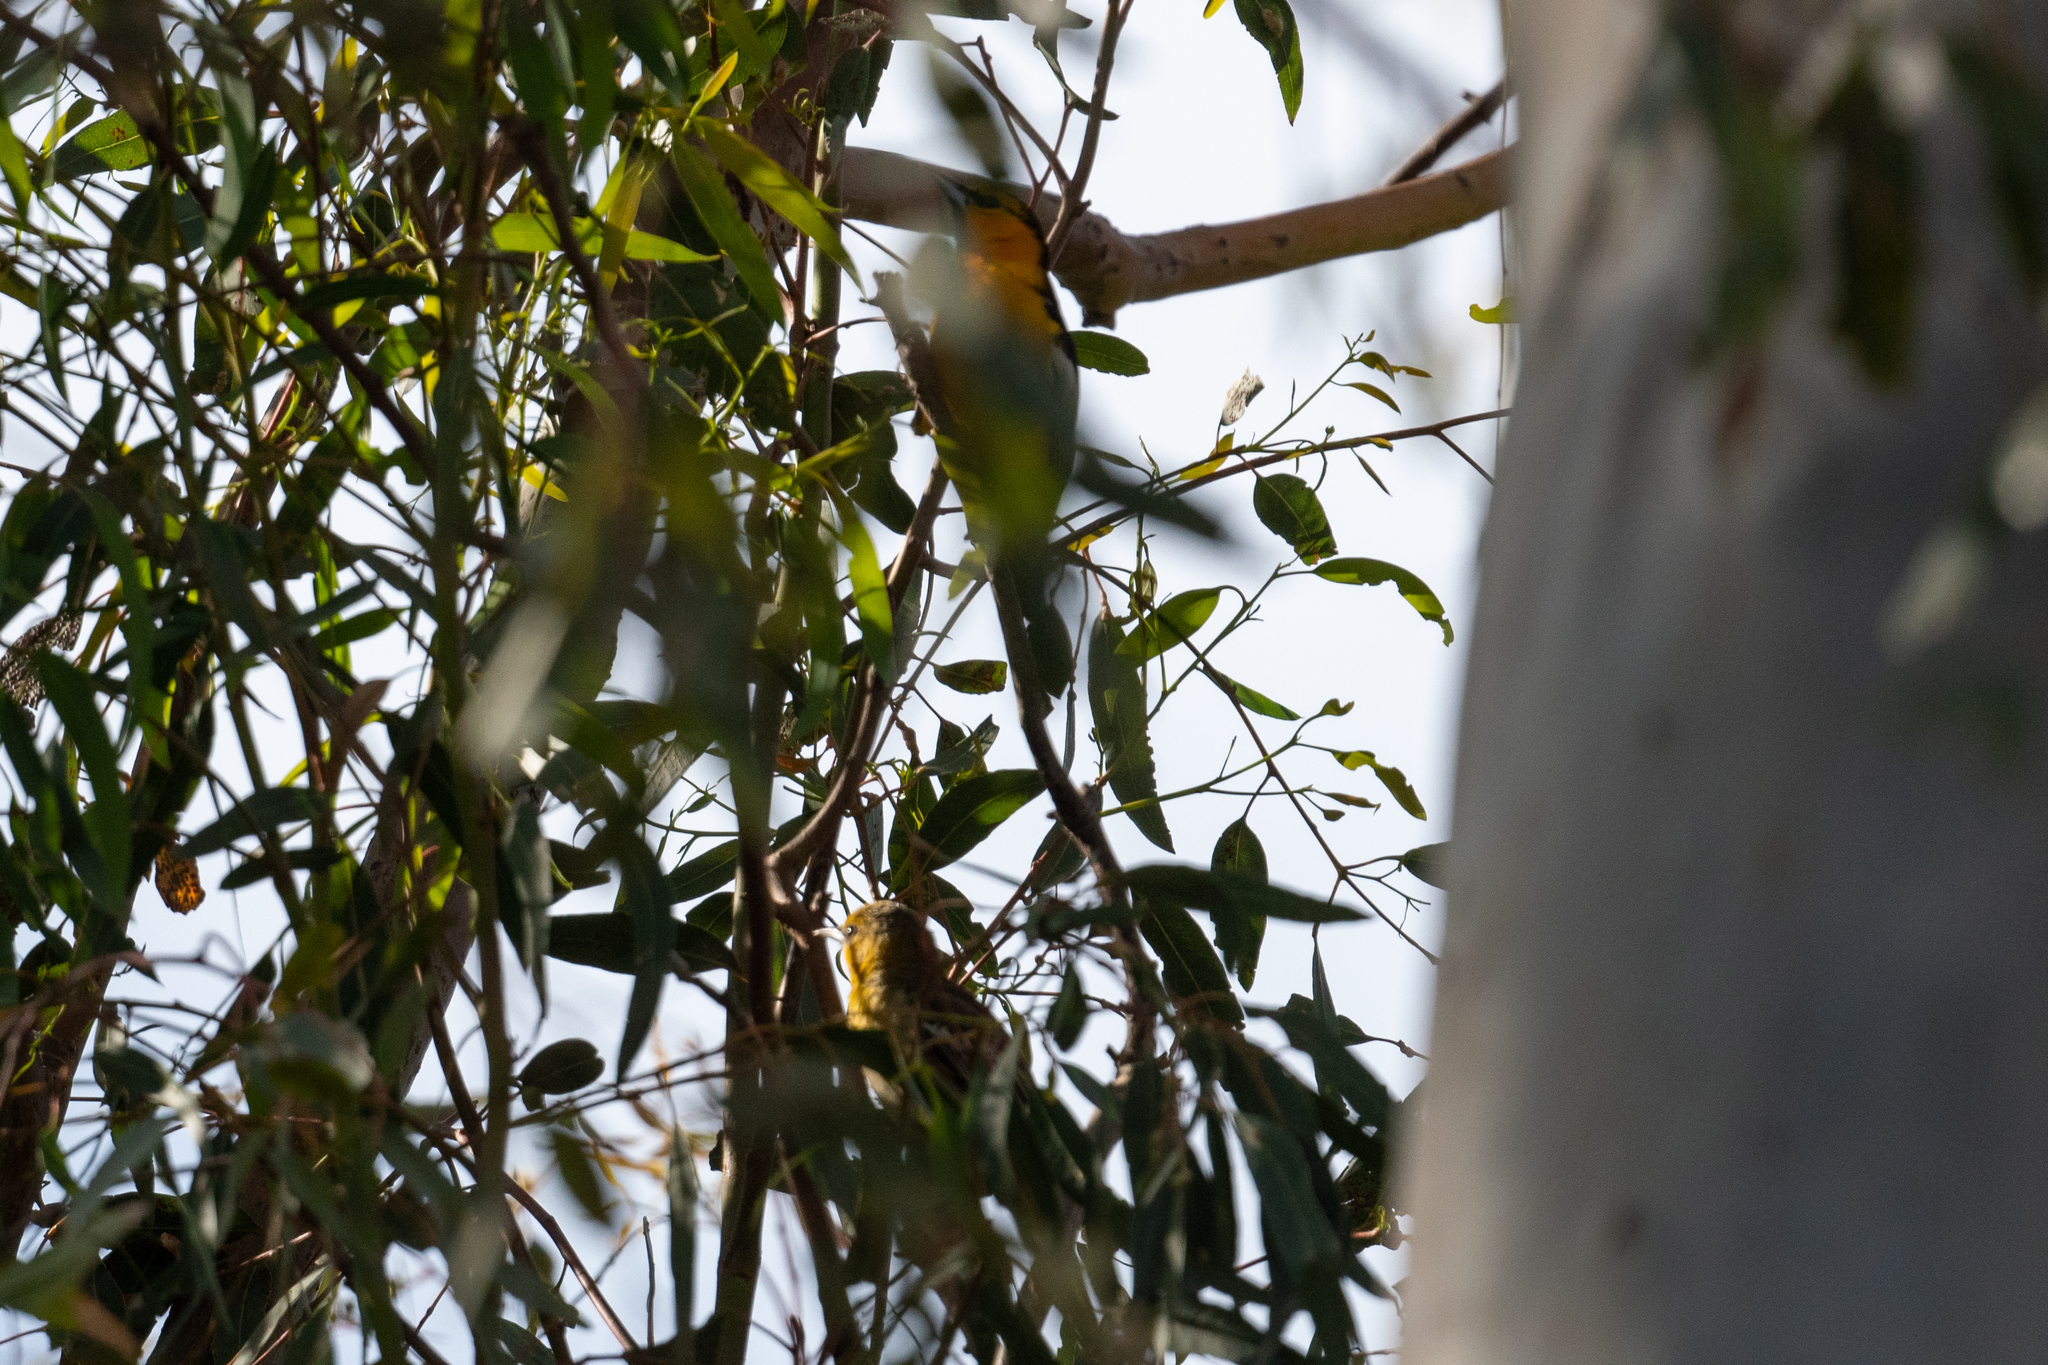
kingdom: Animalia
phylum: Chordata
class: Aves
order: Passeriformes
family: Icteridae
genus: Icterus
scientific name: Icterus bullockii
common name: Bullock's oriole
